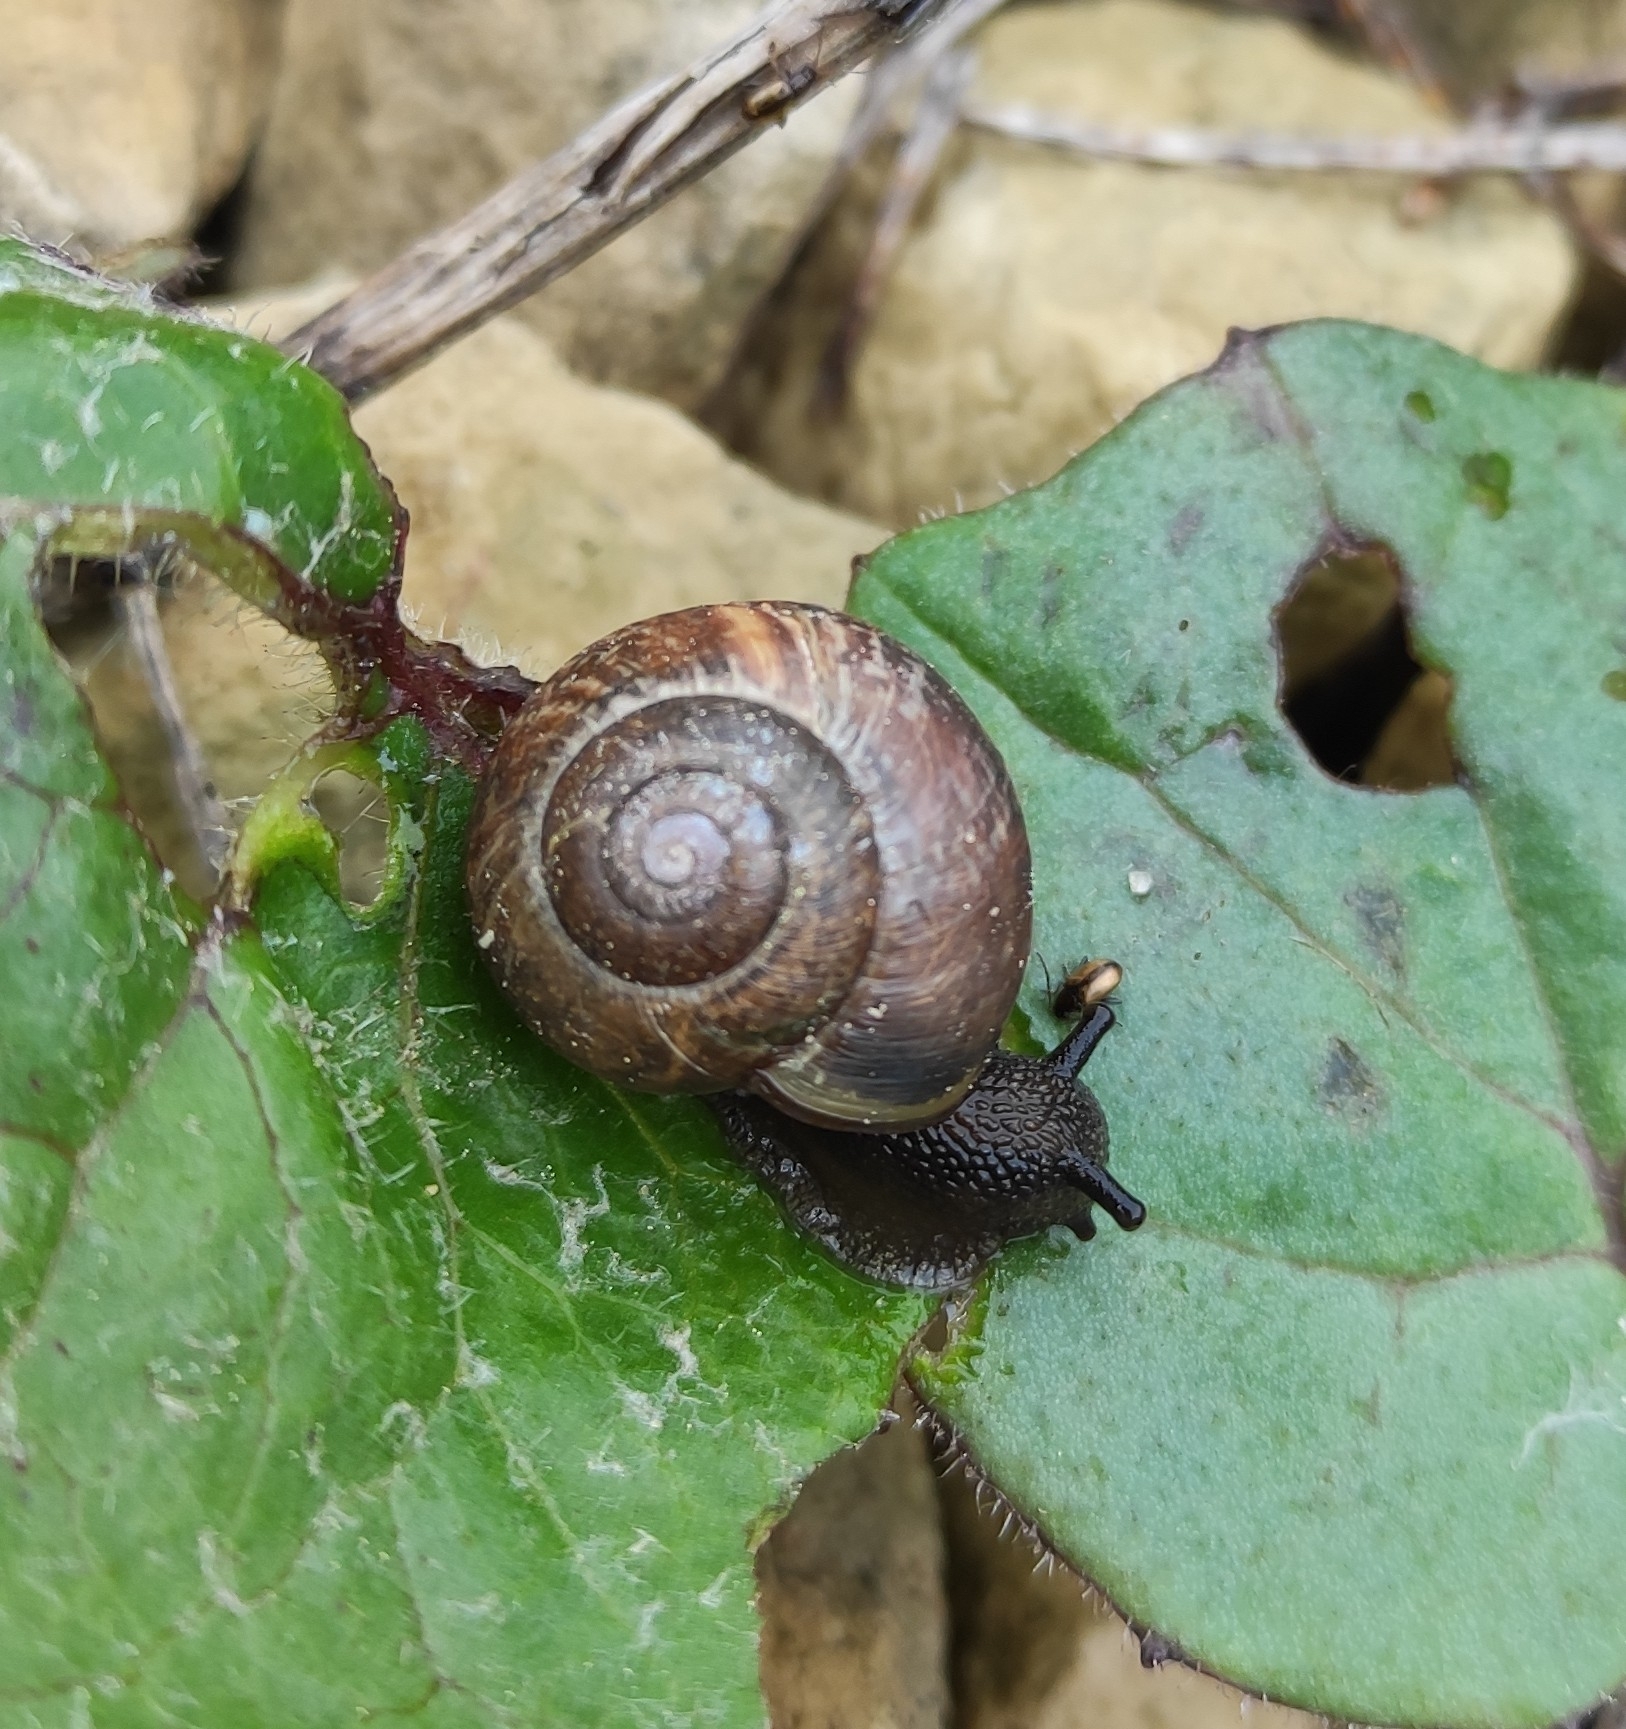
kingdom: Animalia
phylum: Mollusca
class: Gastropoda
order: Stylommatophora
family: Helicidae
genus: Arianta
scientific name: Arianta arbustorum
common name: Copse snail
